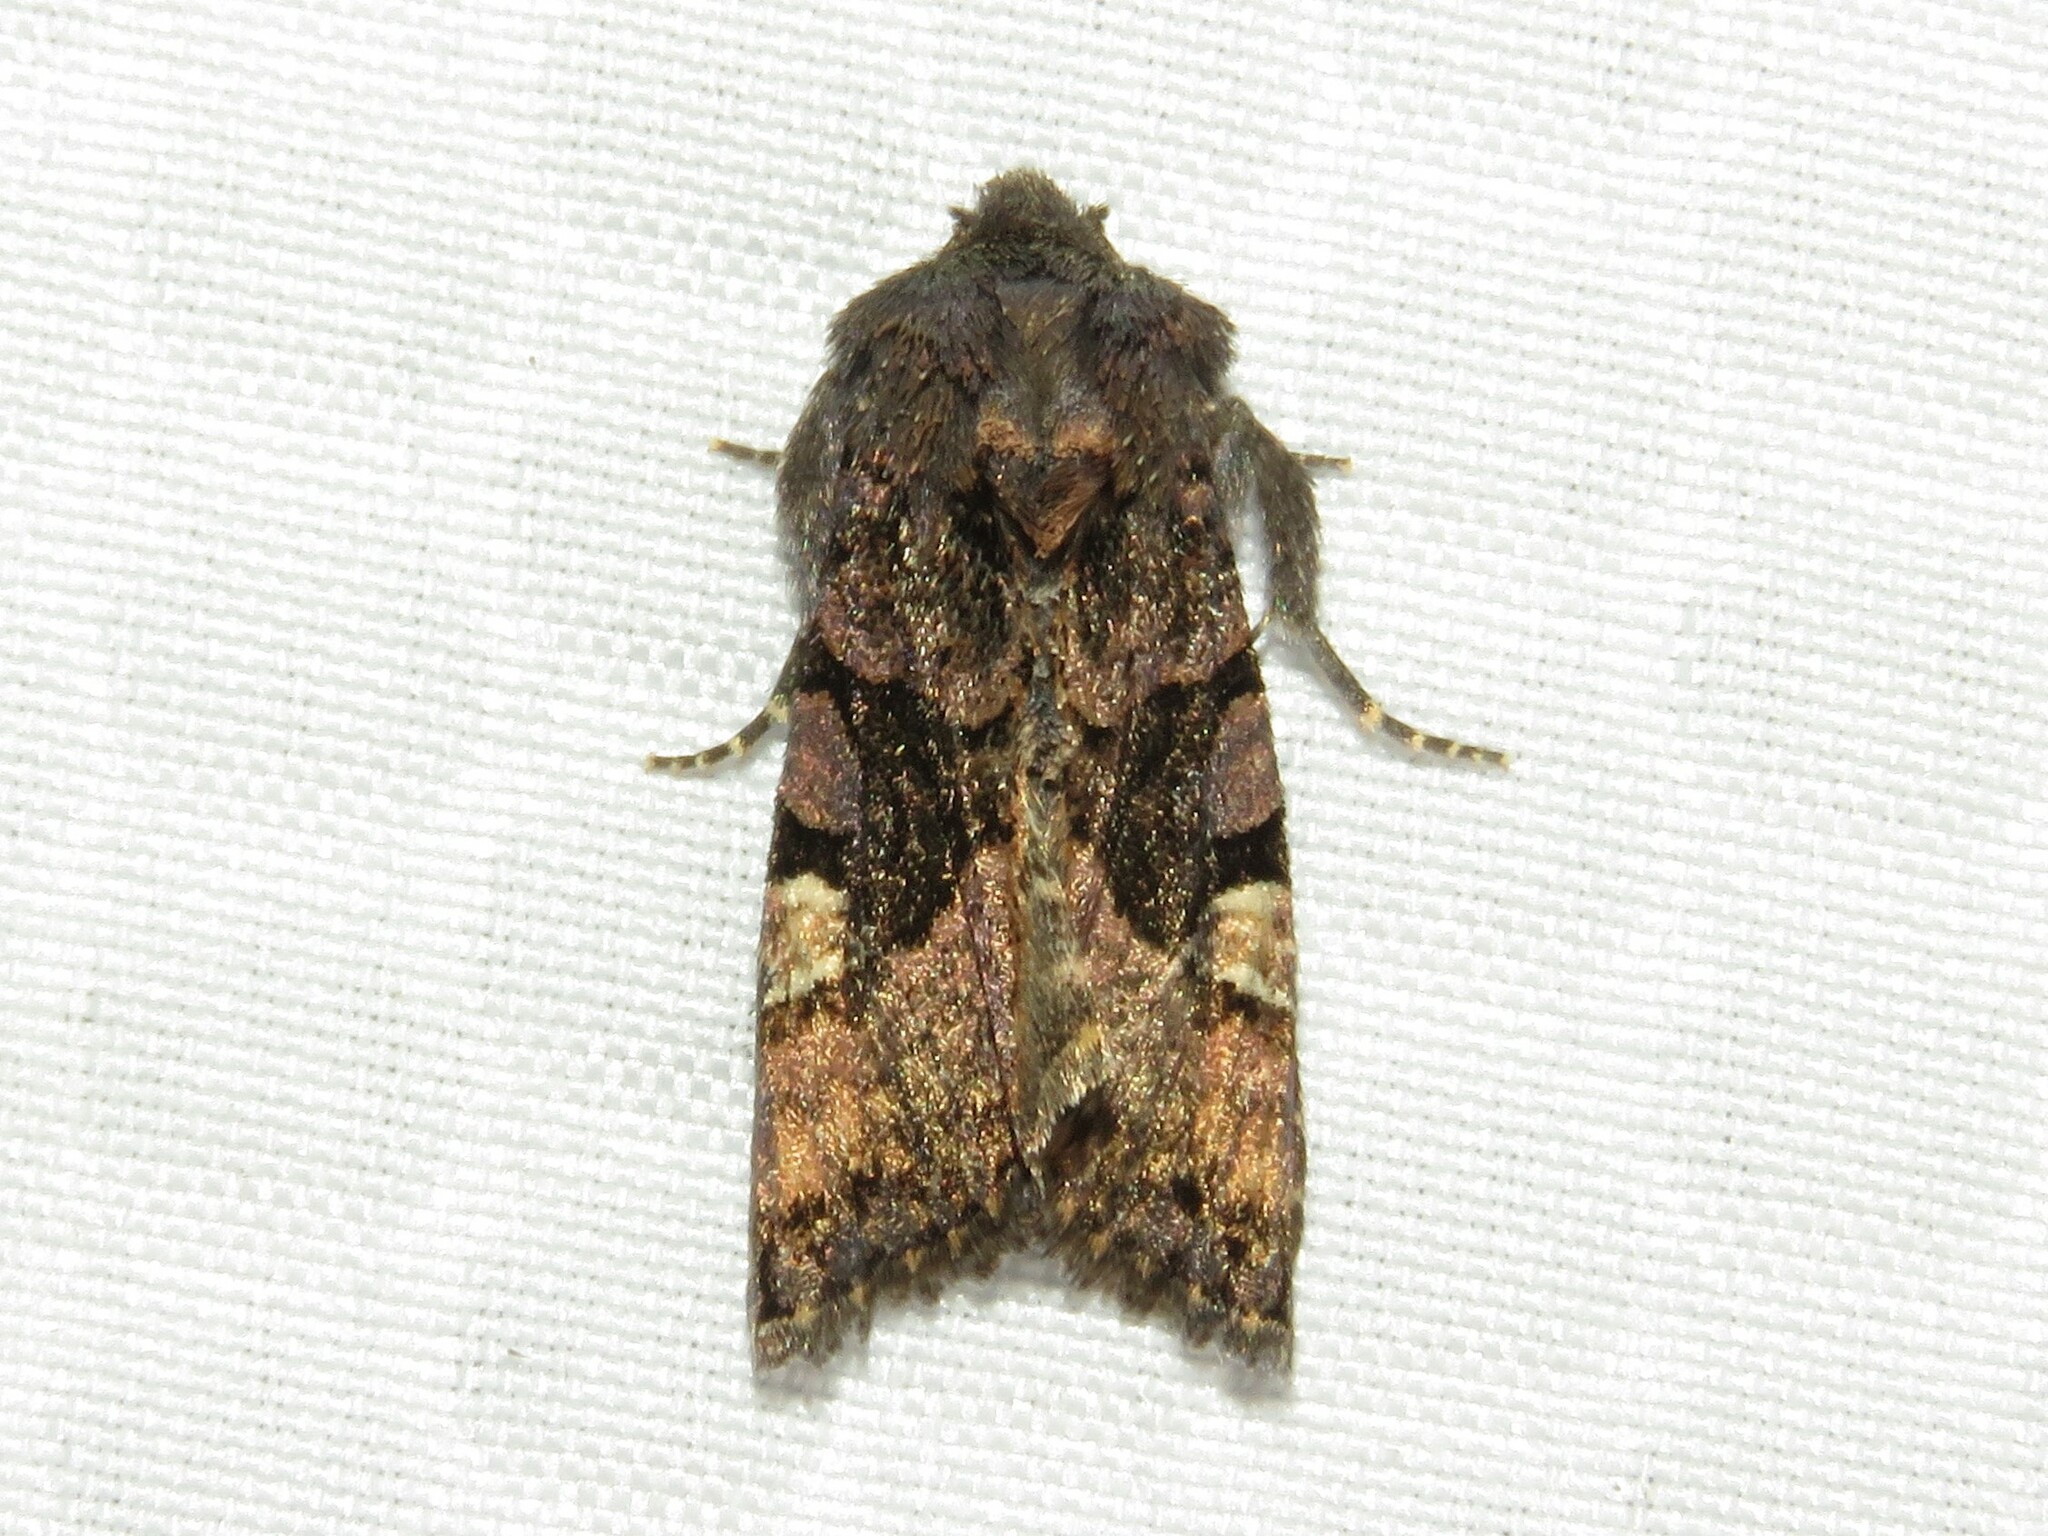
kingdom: Animalia
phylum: Arthropoda
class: Insecta
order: Lepidoptera
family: Noctuidae
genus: Euplexia
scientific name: Euplexia benesimilis
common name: American angle shades
